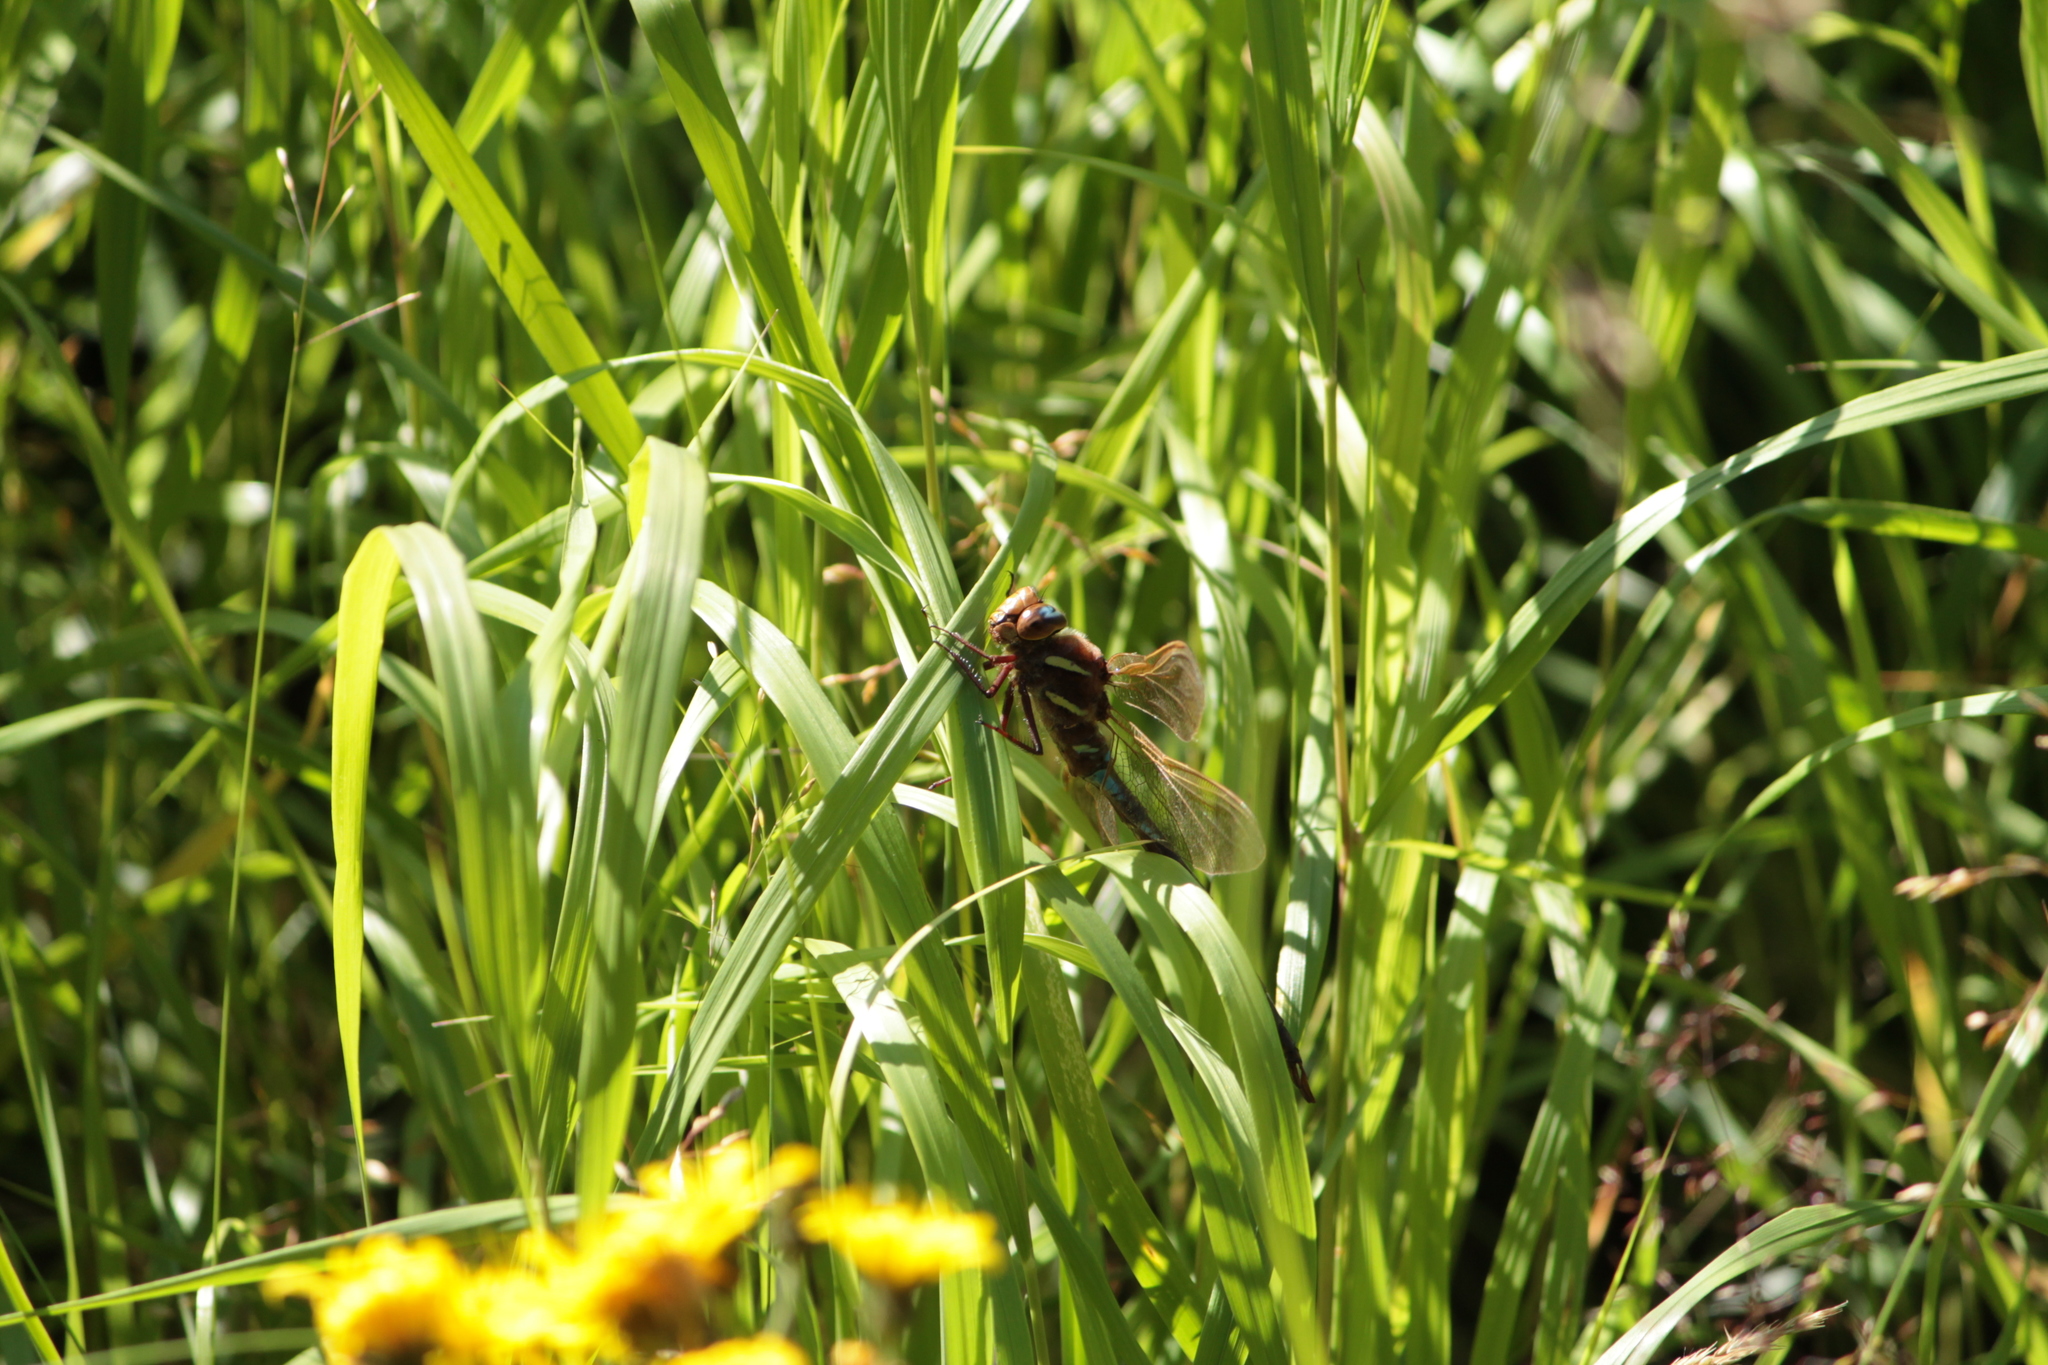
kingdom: Animalia
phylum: Arthropoda
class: Insecta
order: Odonata
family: Aeshnidae
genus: Aeshna
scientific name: Aeshna grandis
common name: Brown hawker
